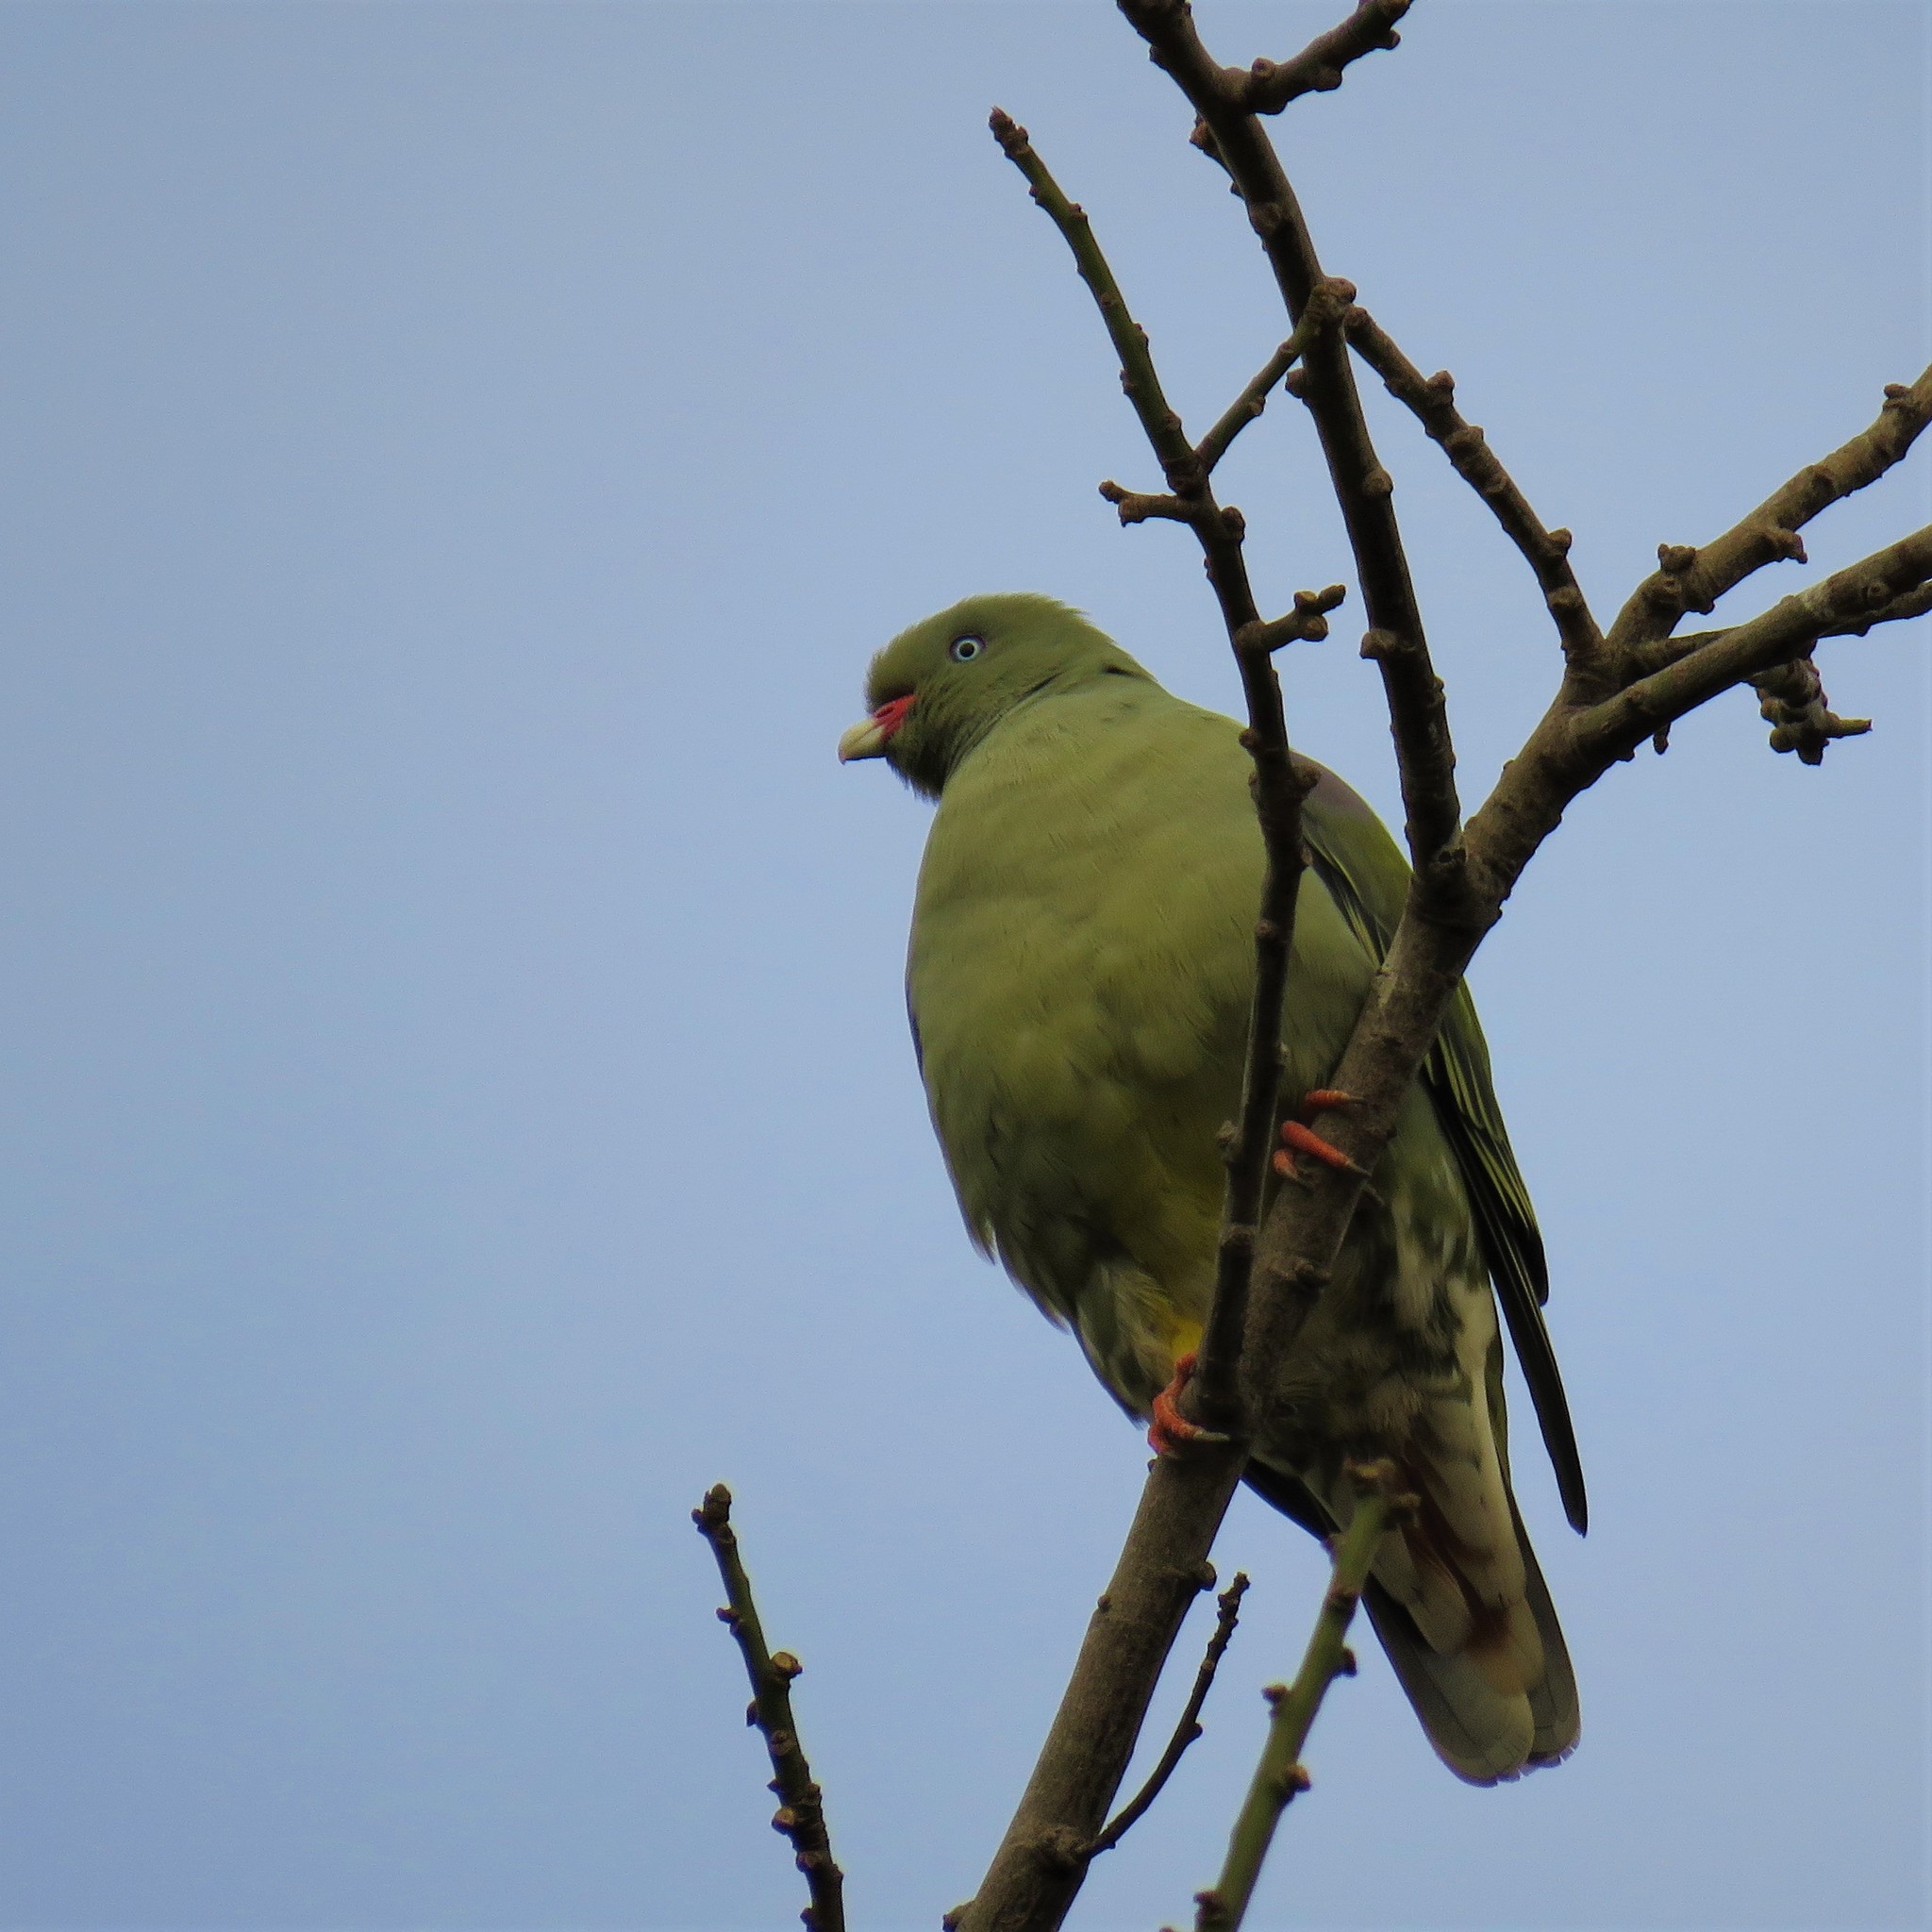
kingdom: Animalia
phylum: Chordata
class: Aves
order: Columbiformes
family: Columbidae
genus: Treron
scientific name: Treron calvus
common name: African green pigeon
